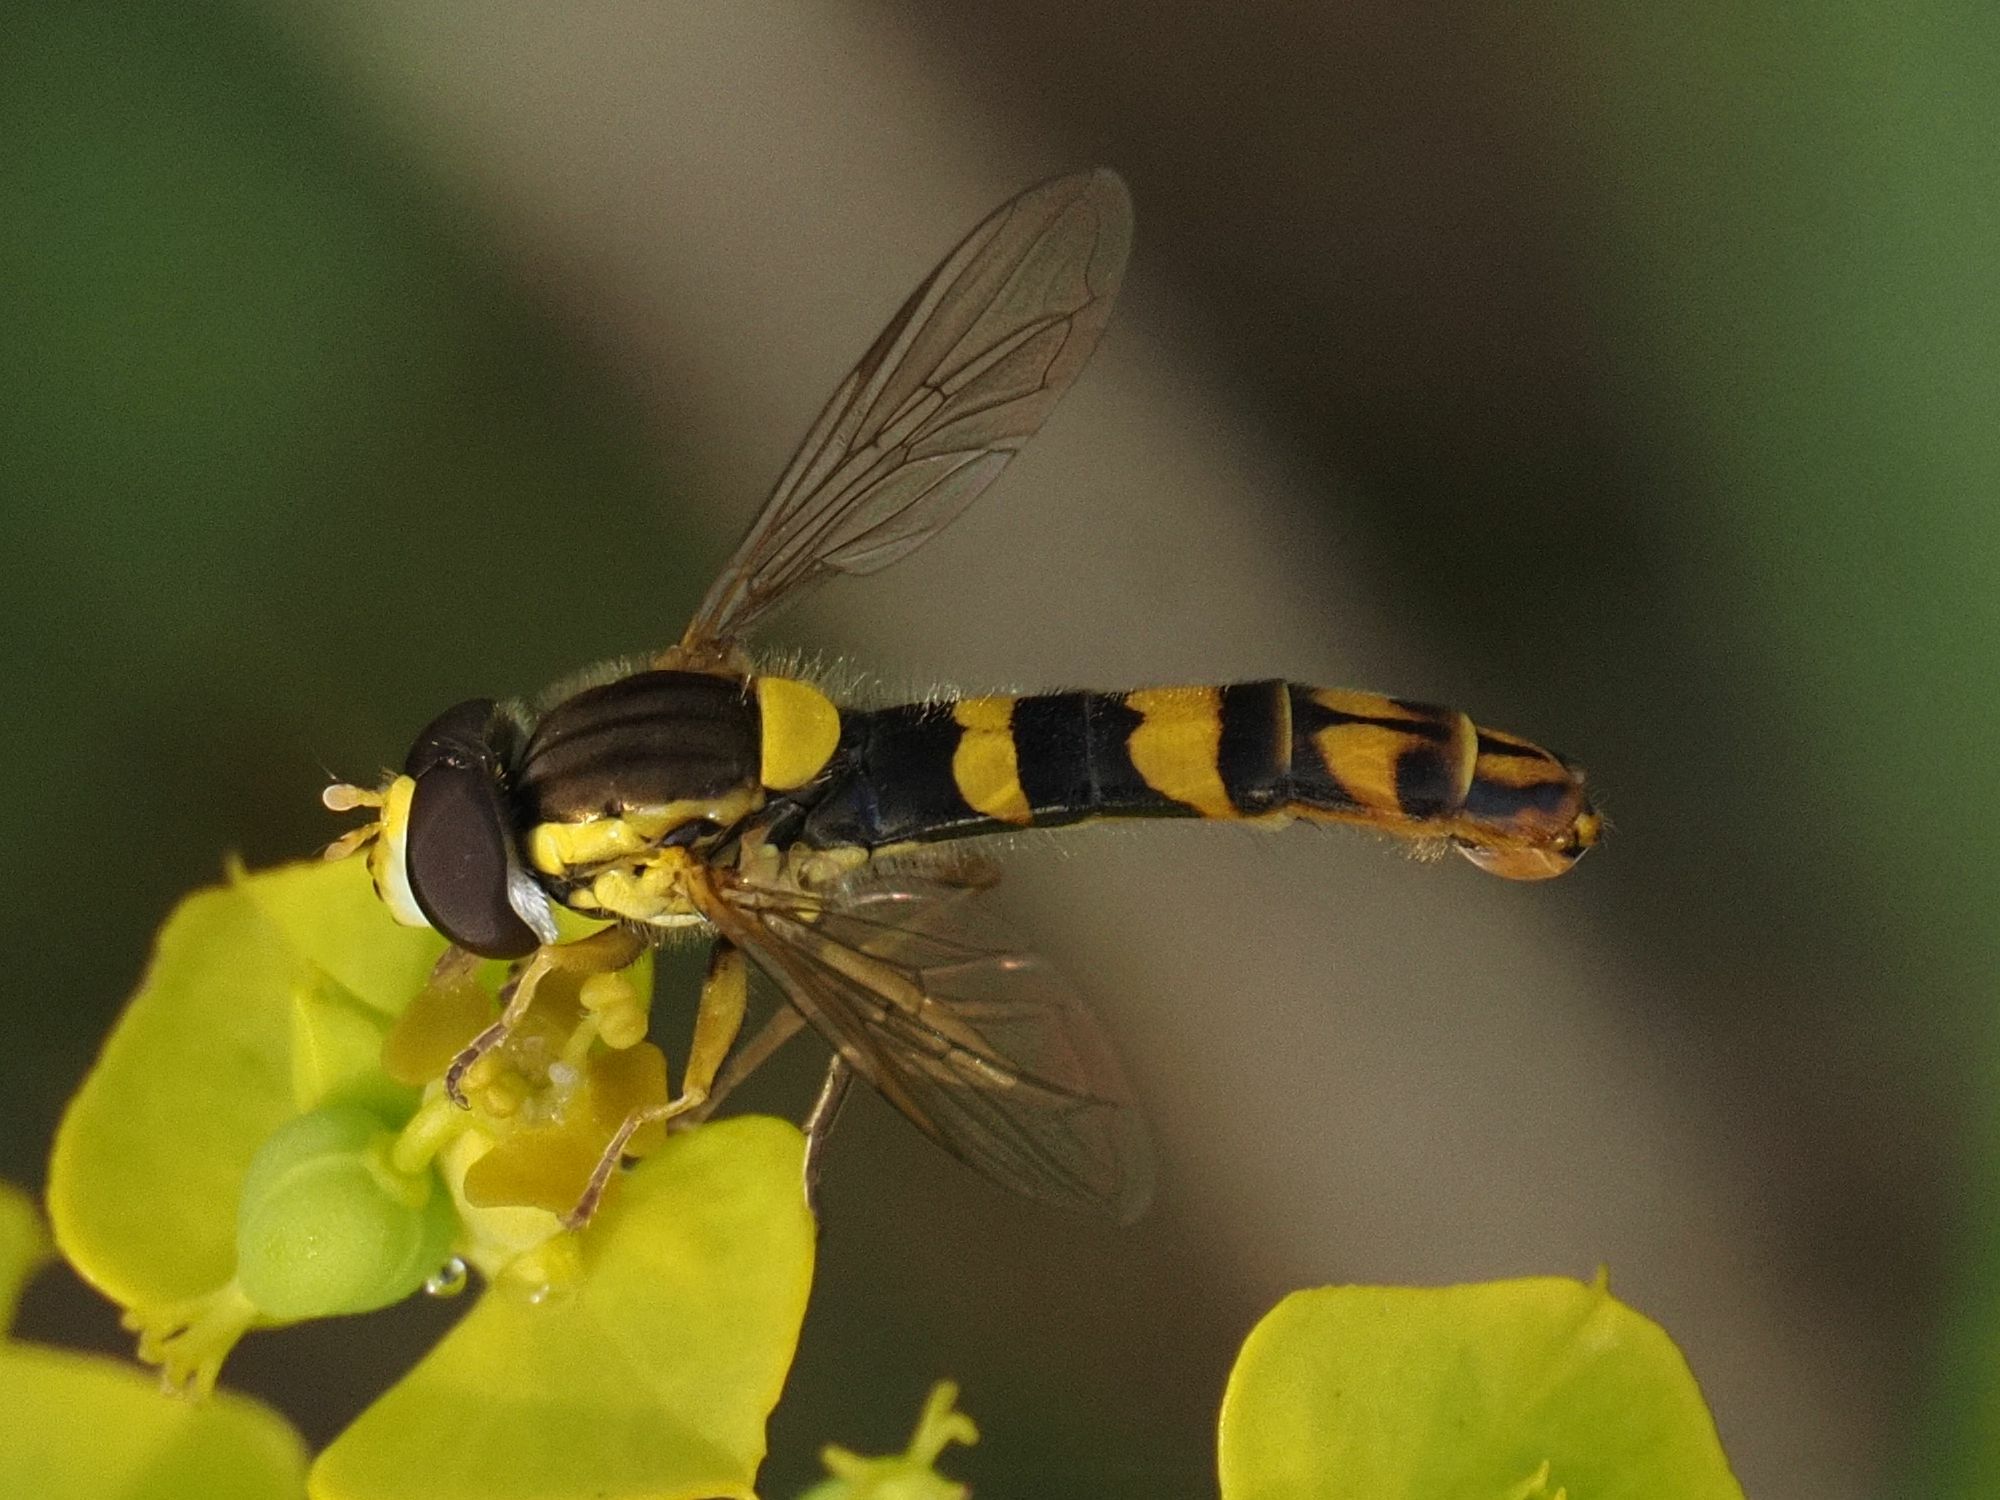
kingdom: Animalia
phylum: Arthropoda
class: Insecta
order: Diptera
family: Syrphidae
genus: Sphaerophoria
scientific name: Sphaerophoria scripta
